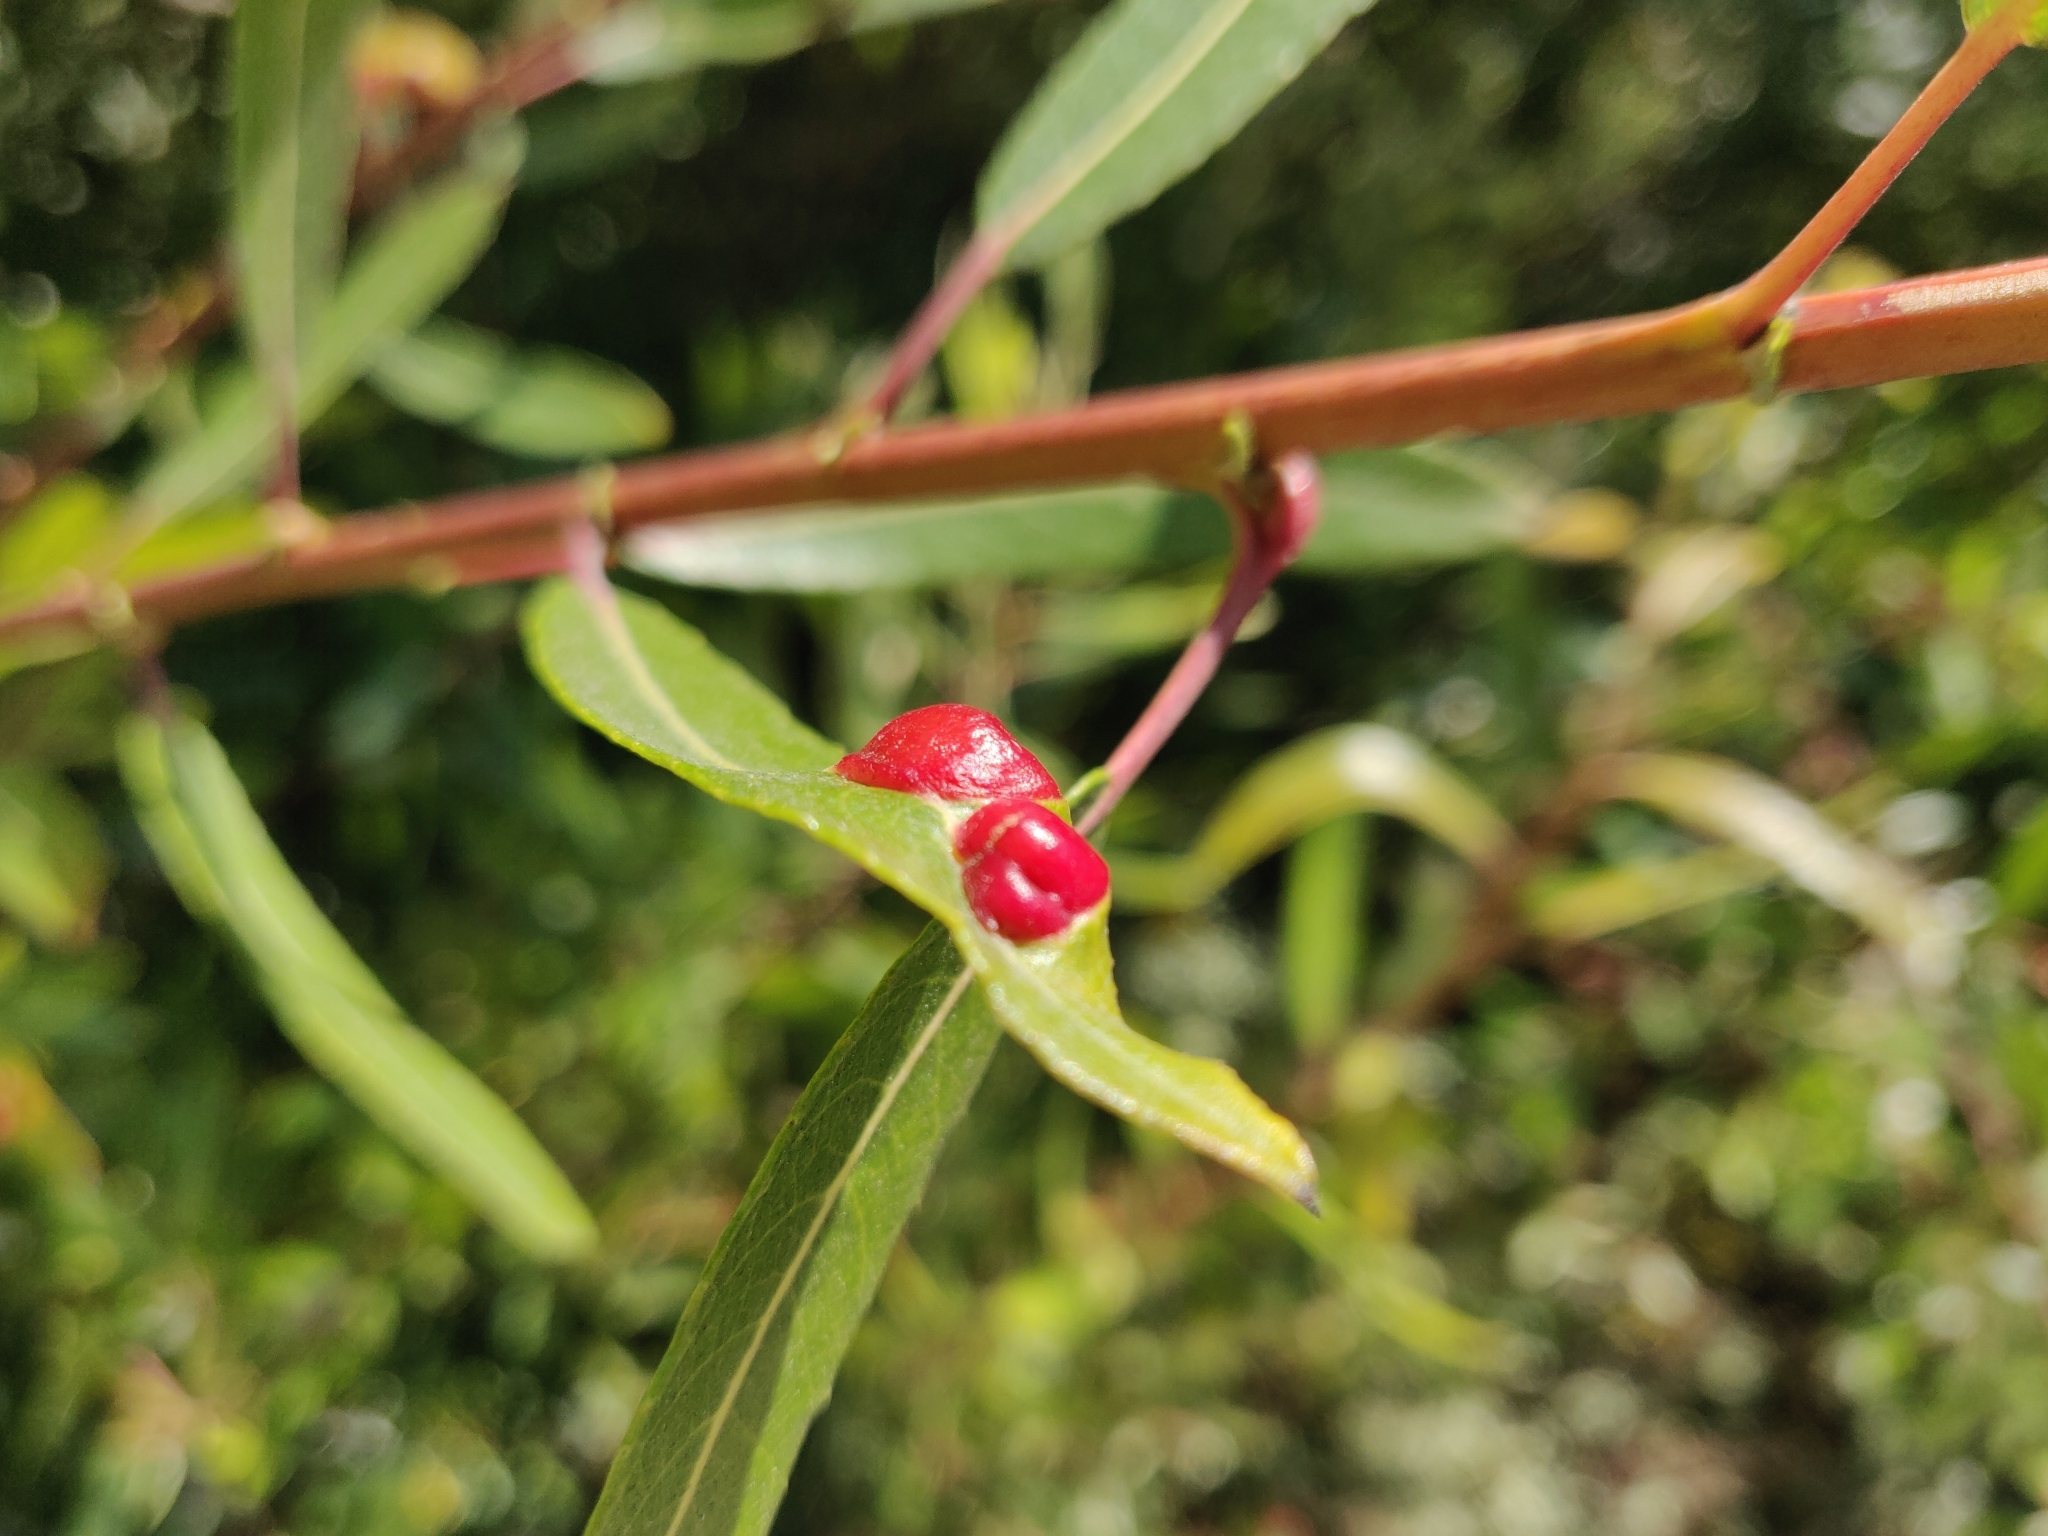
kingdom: Animalia
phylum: Arthropoda
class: Insecta
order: Hymenoptera
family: Tenthredinidae
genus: Euura
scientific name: Euura
